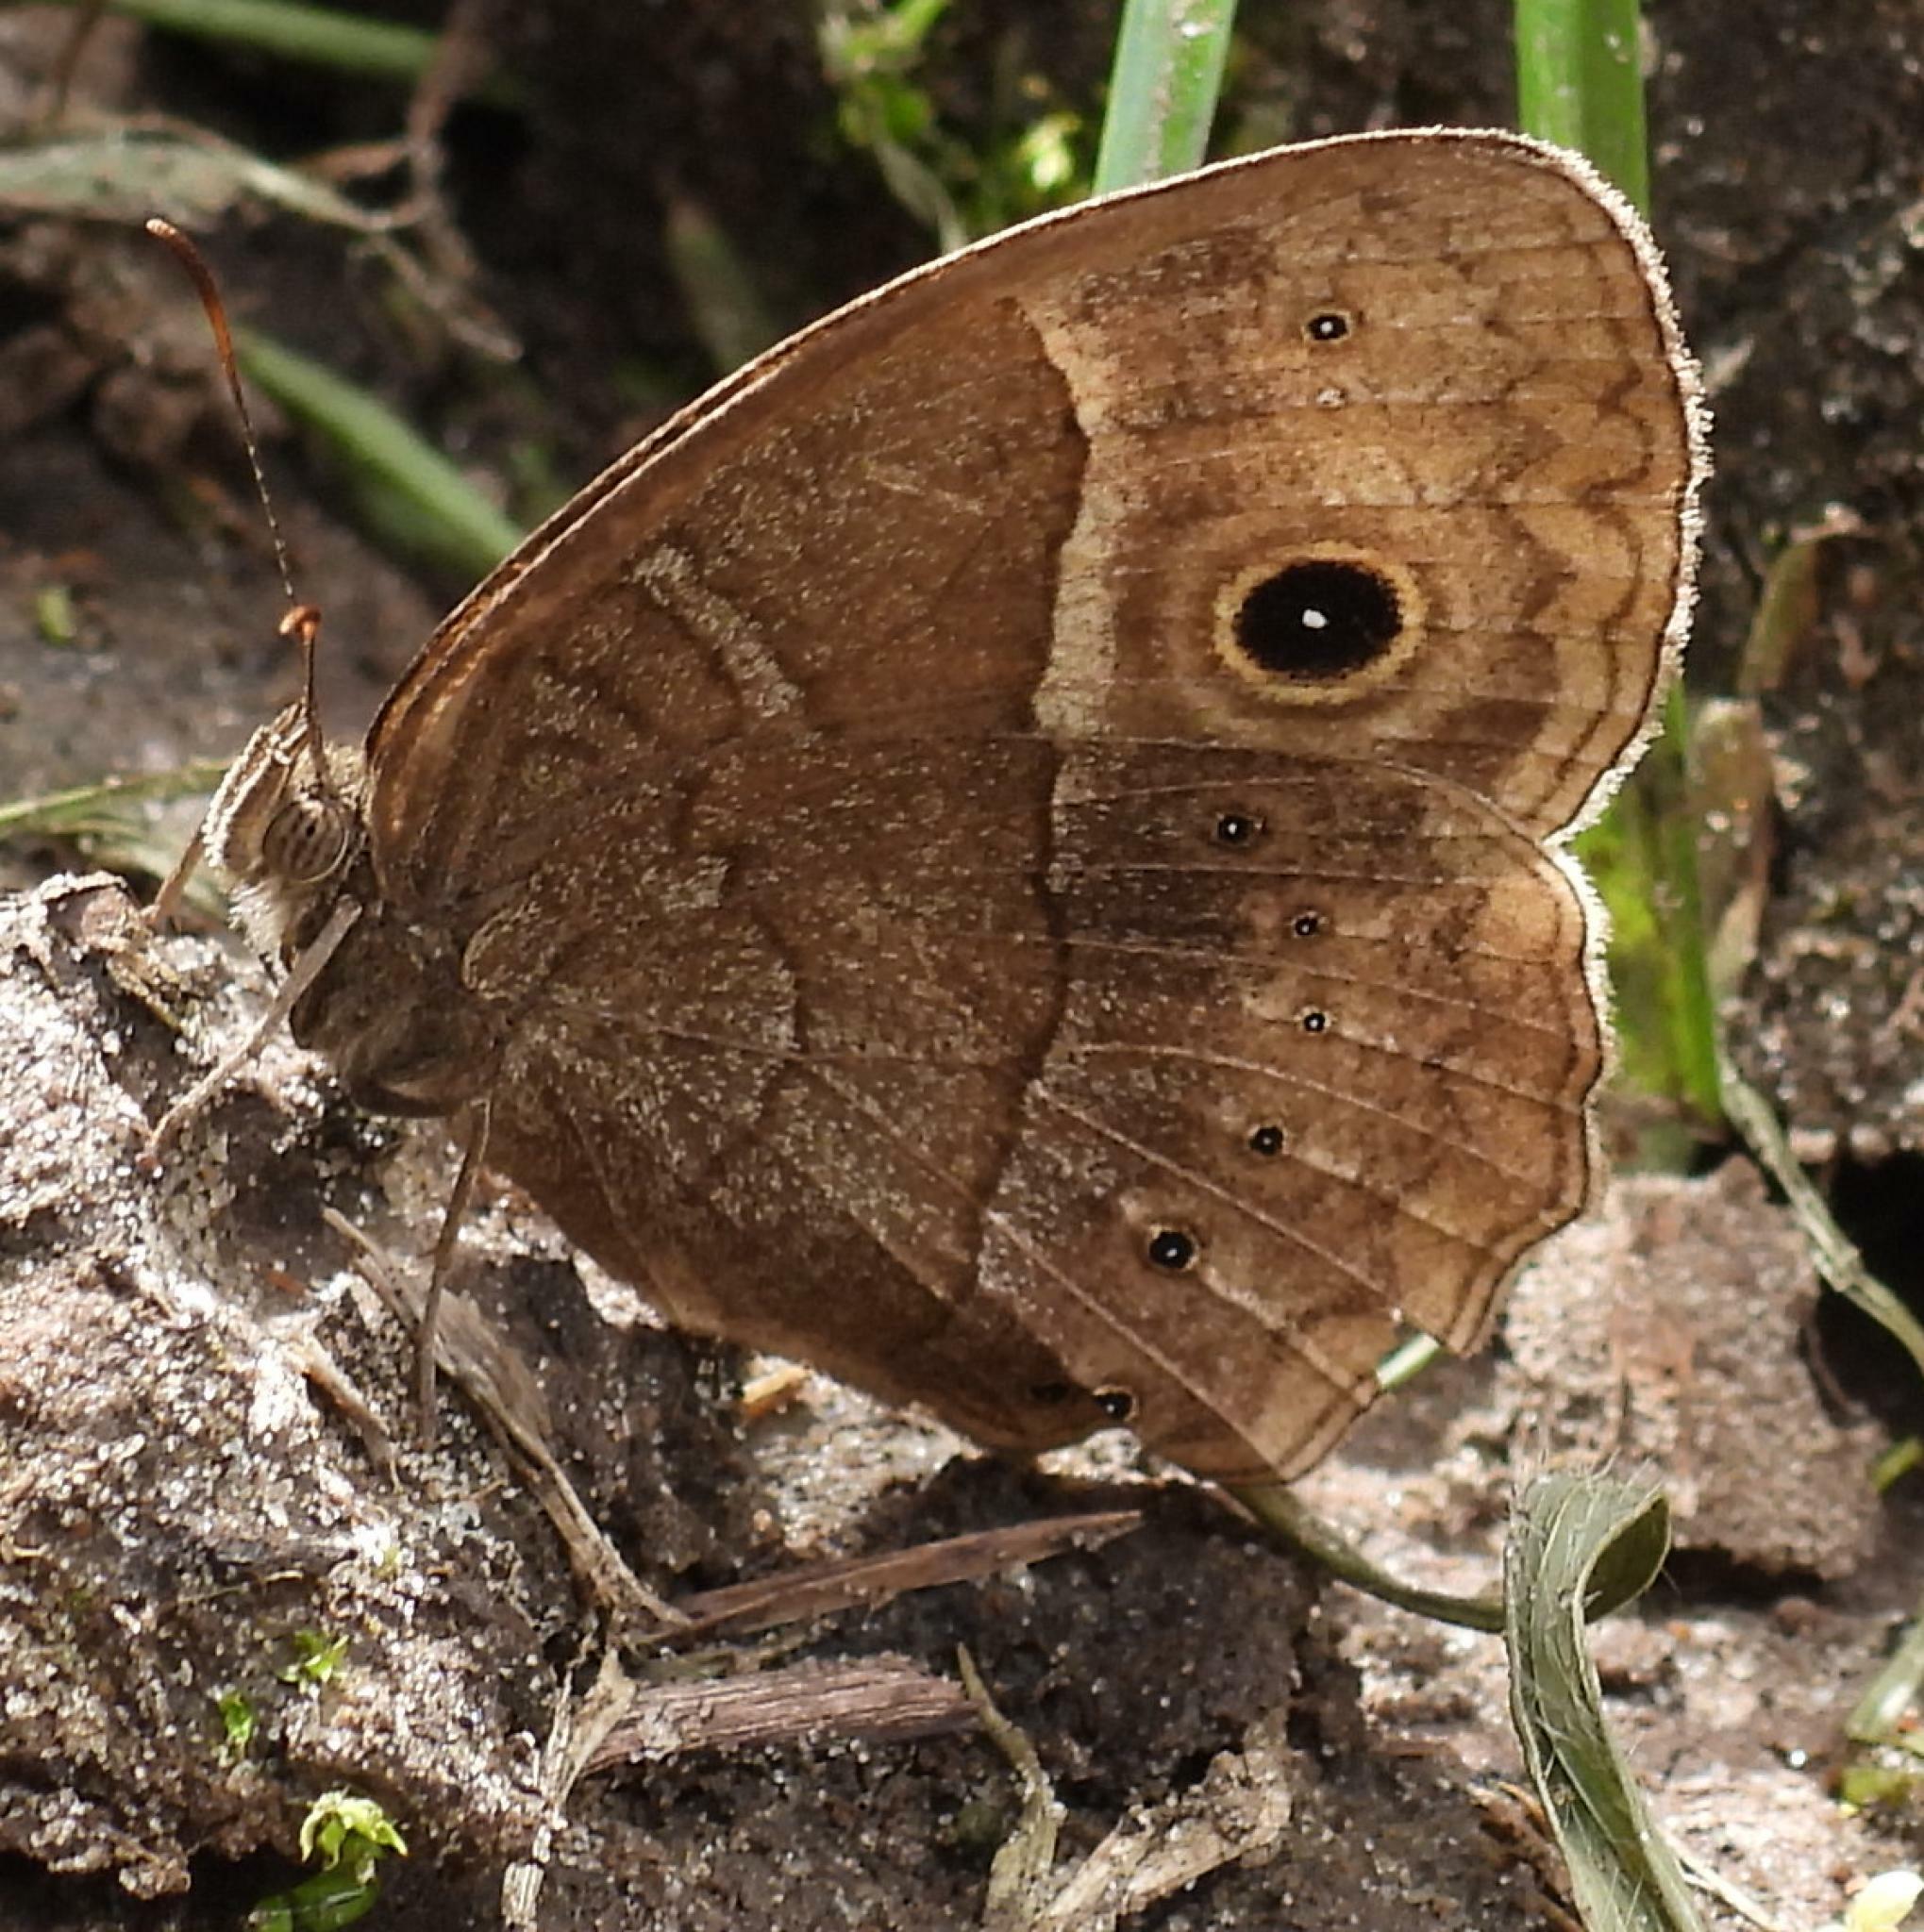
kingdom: Animalia
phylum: Arthropoda
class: Insecta
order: Lepidoptera
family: Nymphalidae
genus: Mycalesis
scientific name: Mycalesis rhacotis
